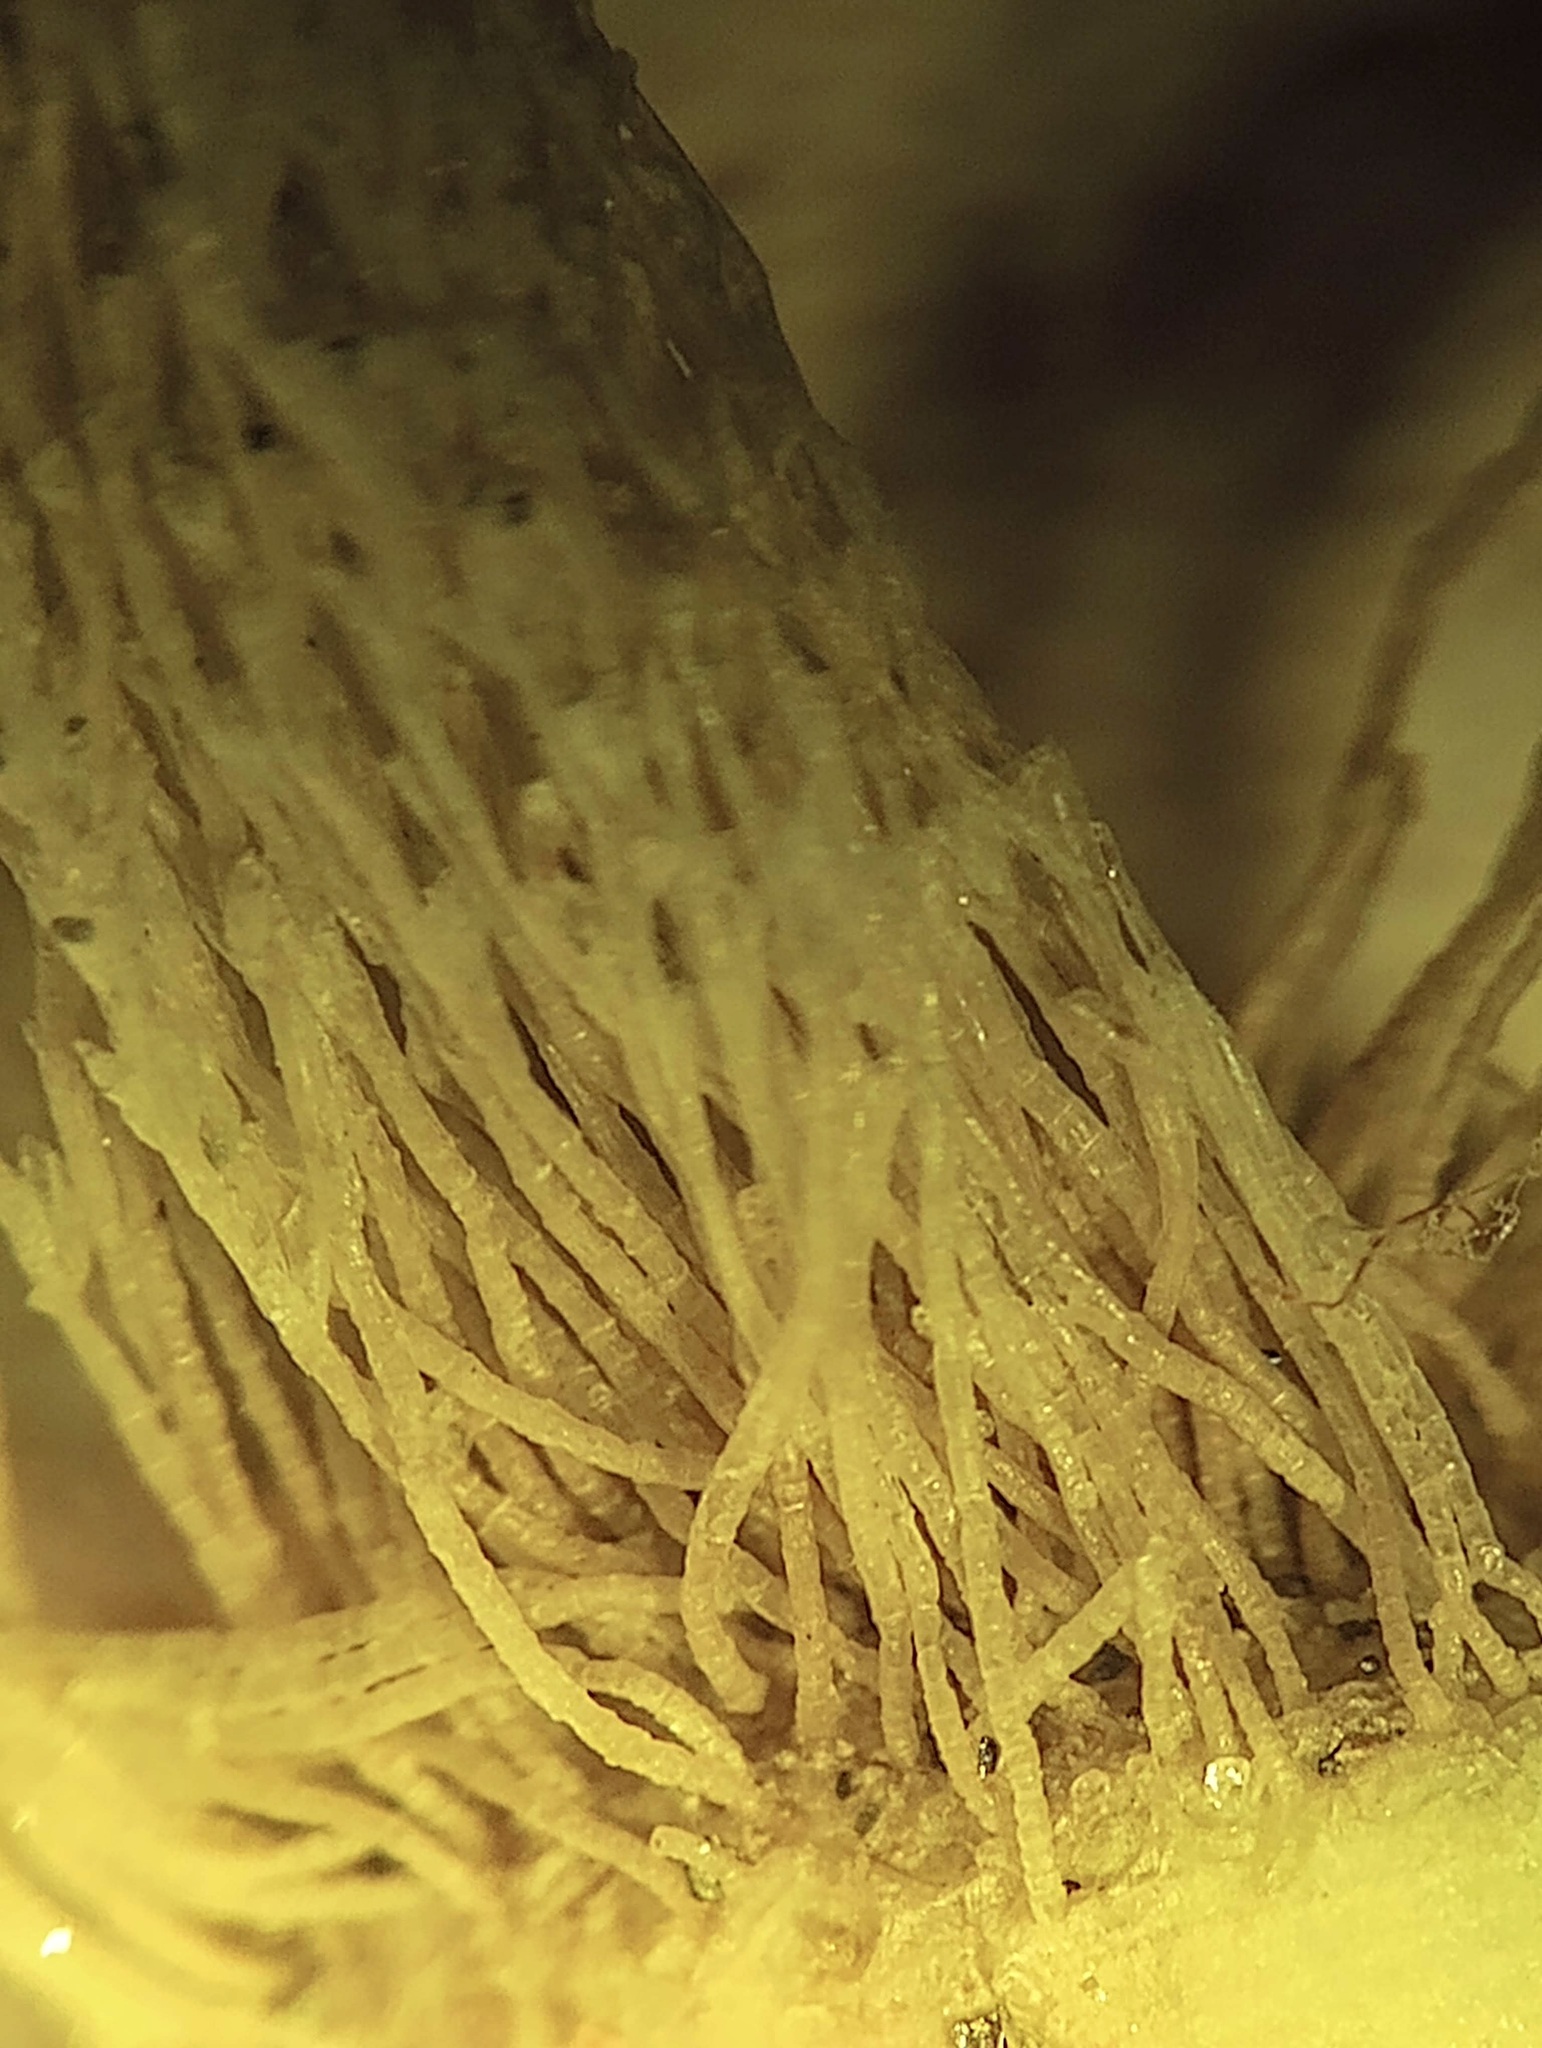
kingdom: Animalia
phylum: Cnidaria
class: Hydrozoa
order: Leptothecata
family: Lovenellidae
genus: Eucheilota
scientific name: Eucheilota bakeri
